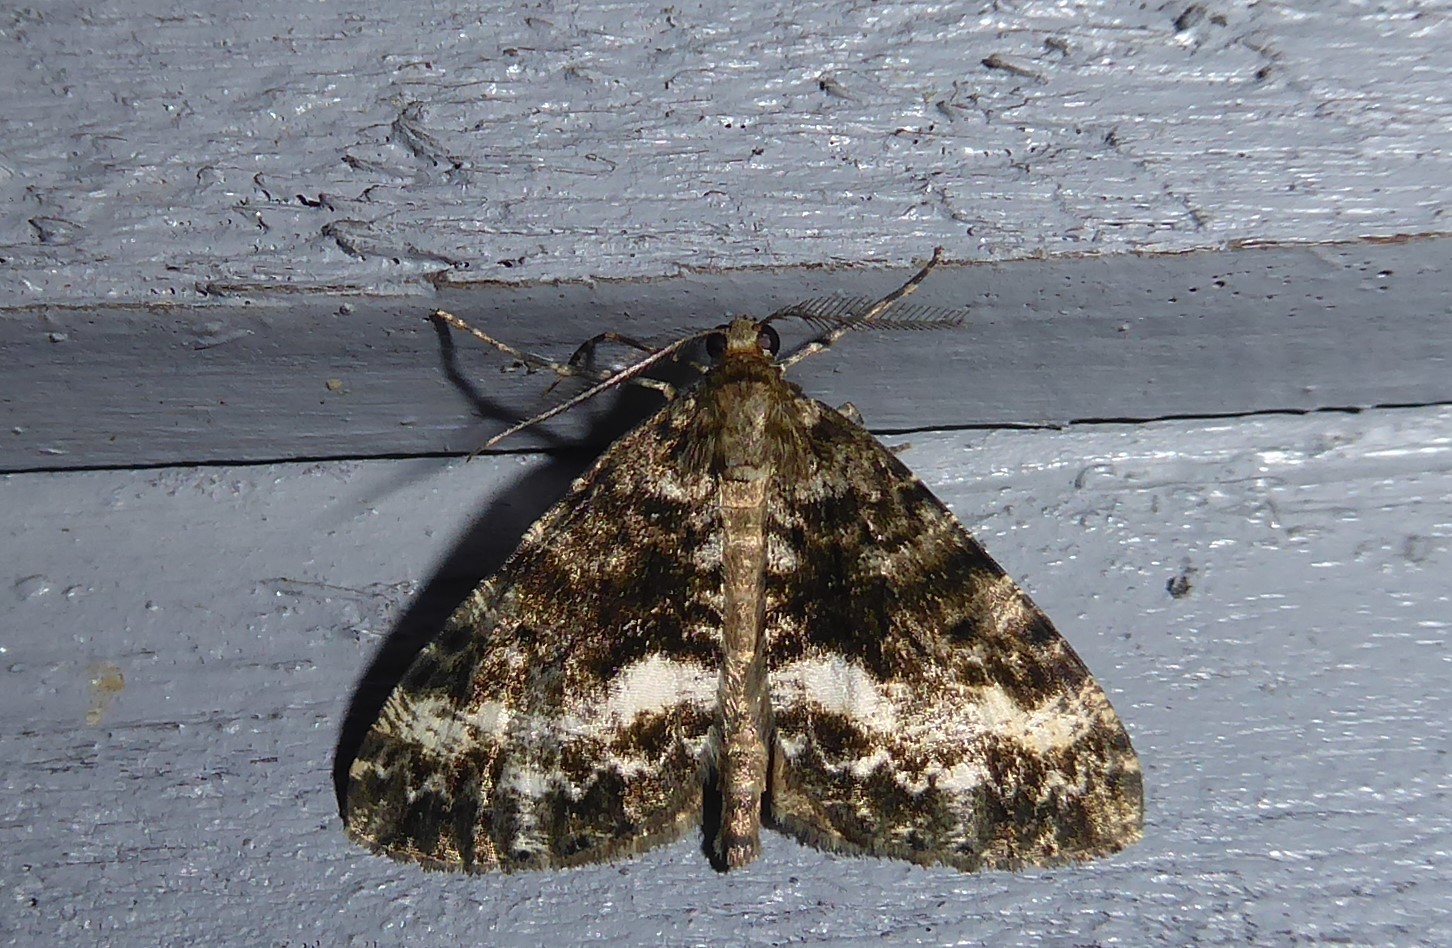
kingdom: Animalia
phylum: Arthropoda
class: Insecta
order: Lepidoptera
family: Geometridae
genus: Pseudocoremia
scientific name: Pseudocoremia lactiflua
